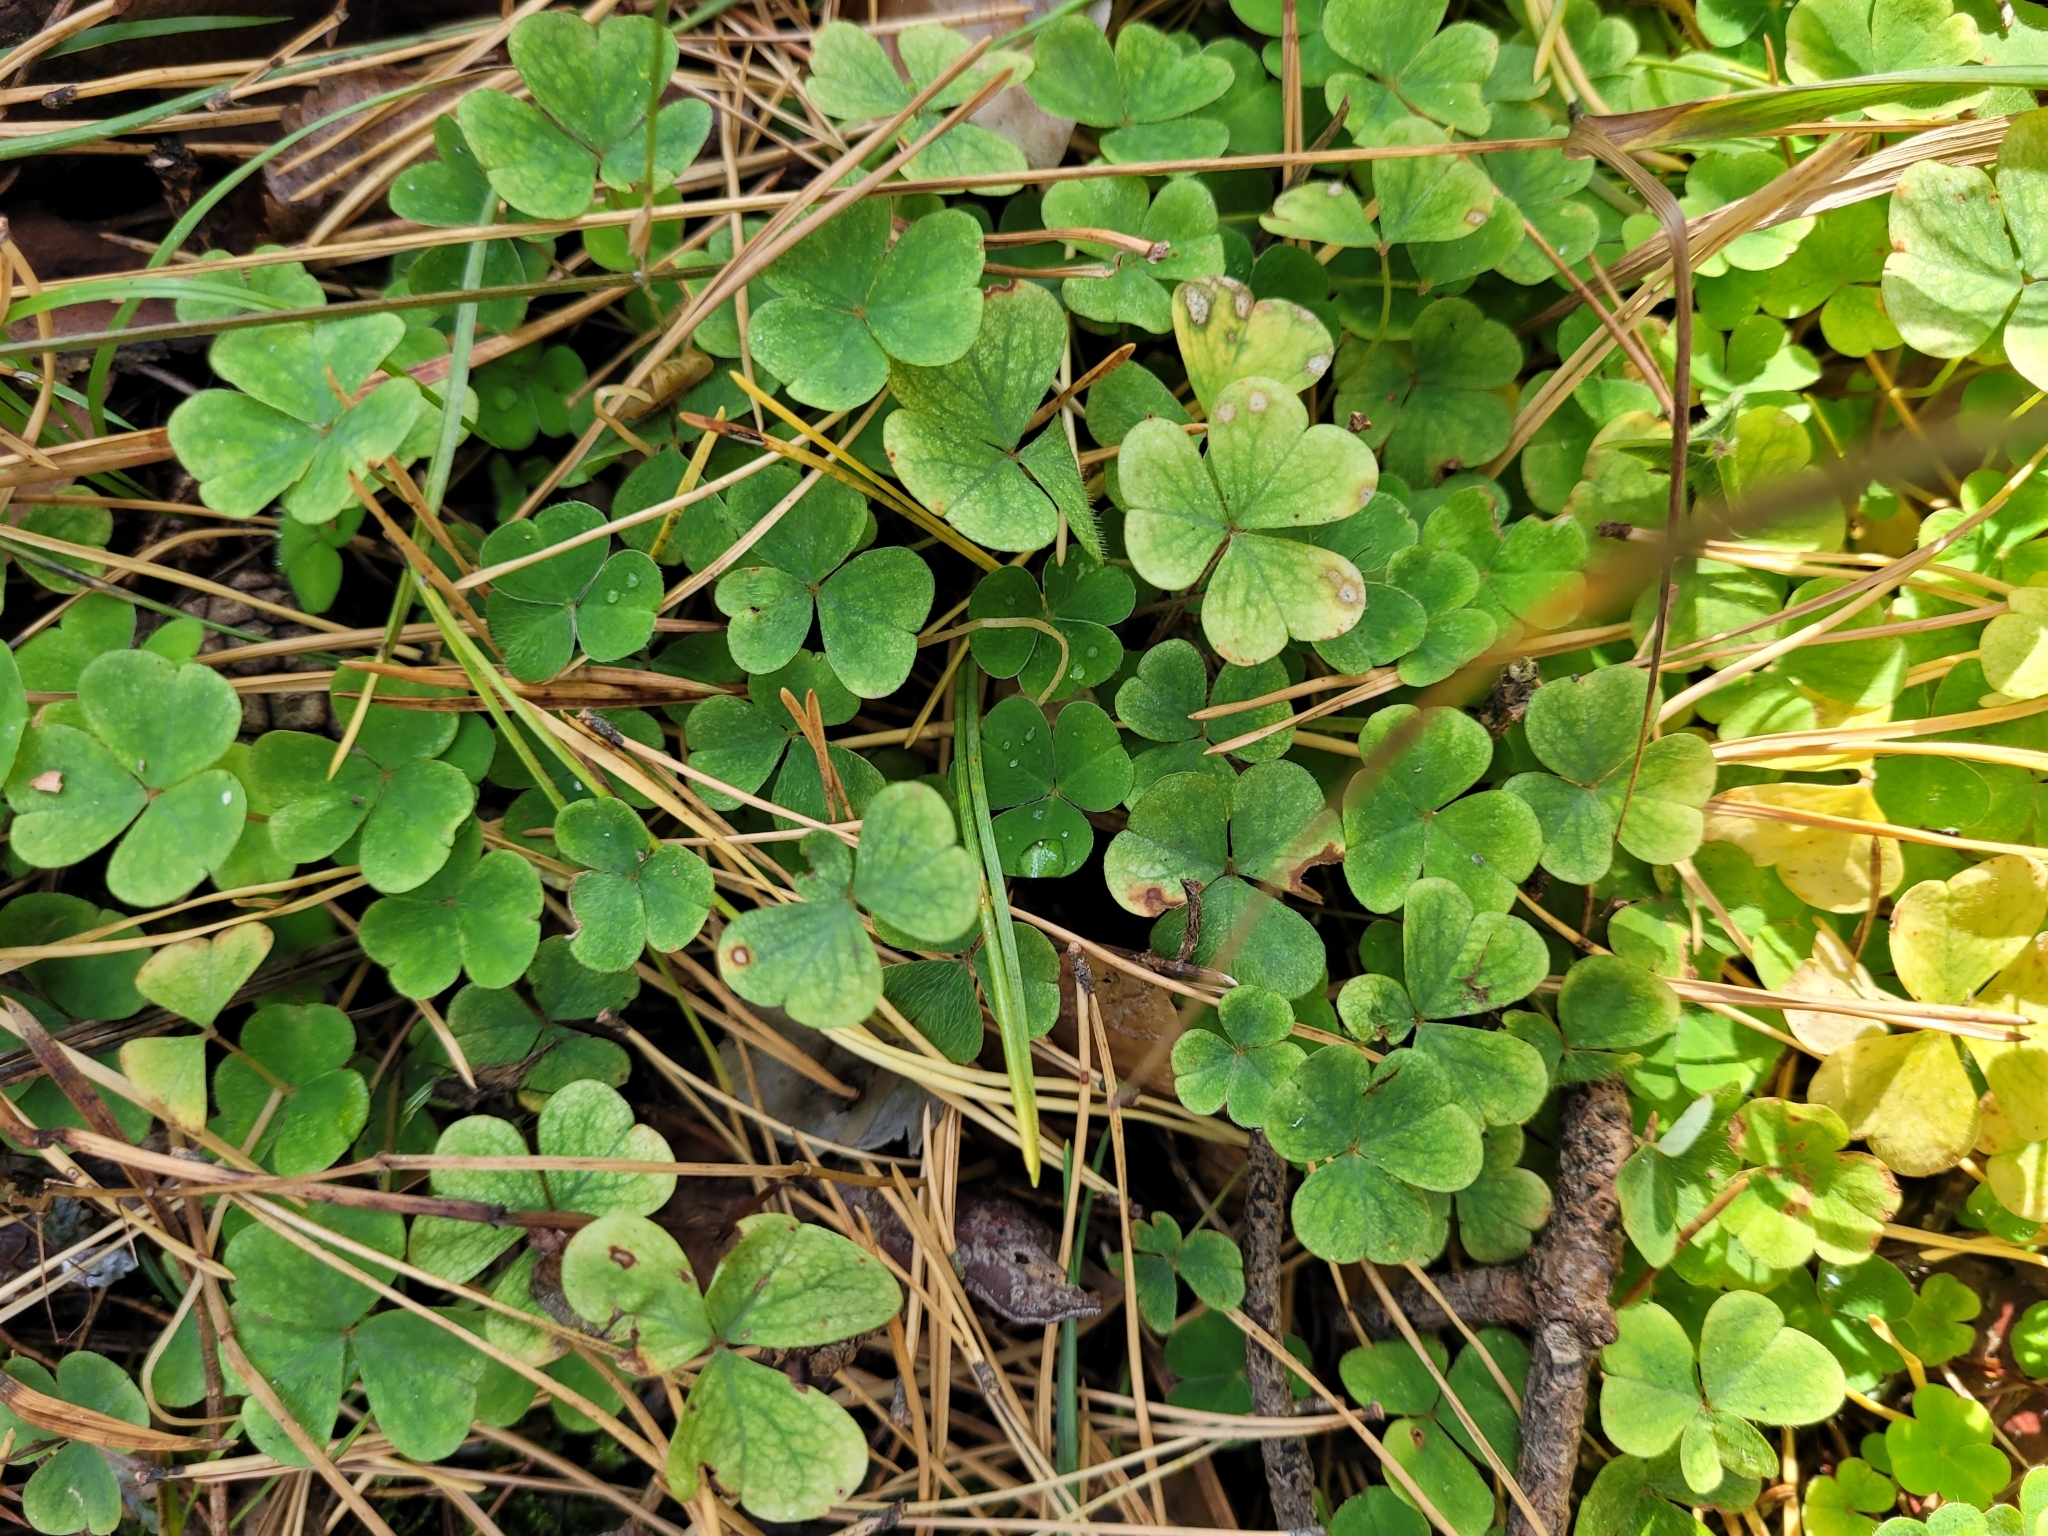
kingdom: Plantae
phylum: Tracheophyta
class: Magnoliopsida
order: Oxalidales
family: Oxalidaceae
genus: Oxalis
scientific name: Oxalis acetosella
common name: Wood-sorrel
